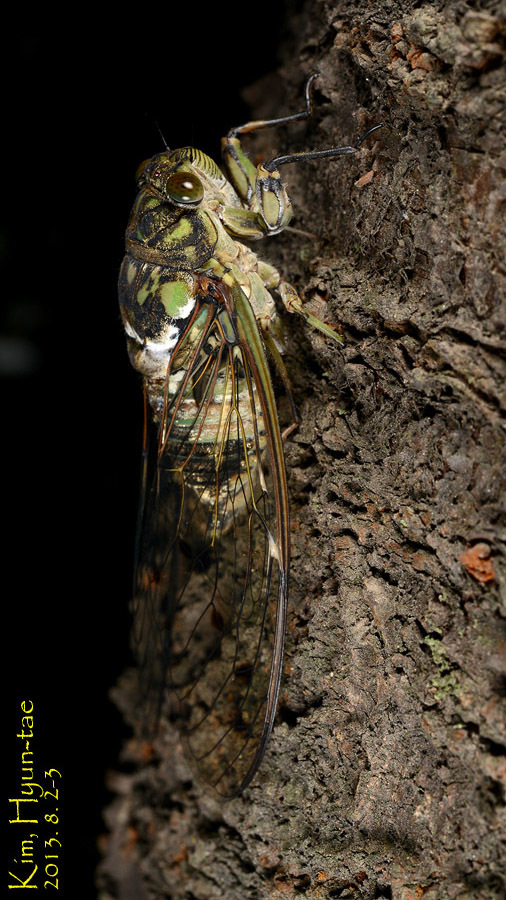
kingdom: Animalia
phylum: Arthropoda
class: Insecta
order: Hemiptera
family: Cicadidae
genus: Hyalessa
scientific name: Hyalessa maculaticollis
